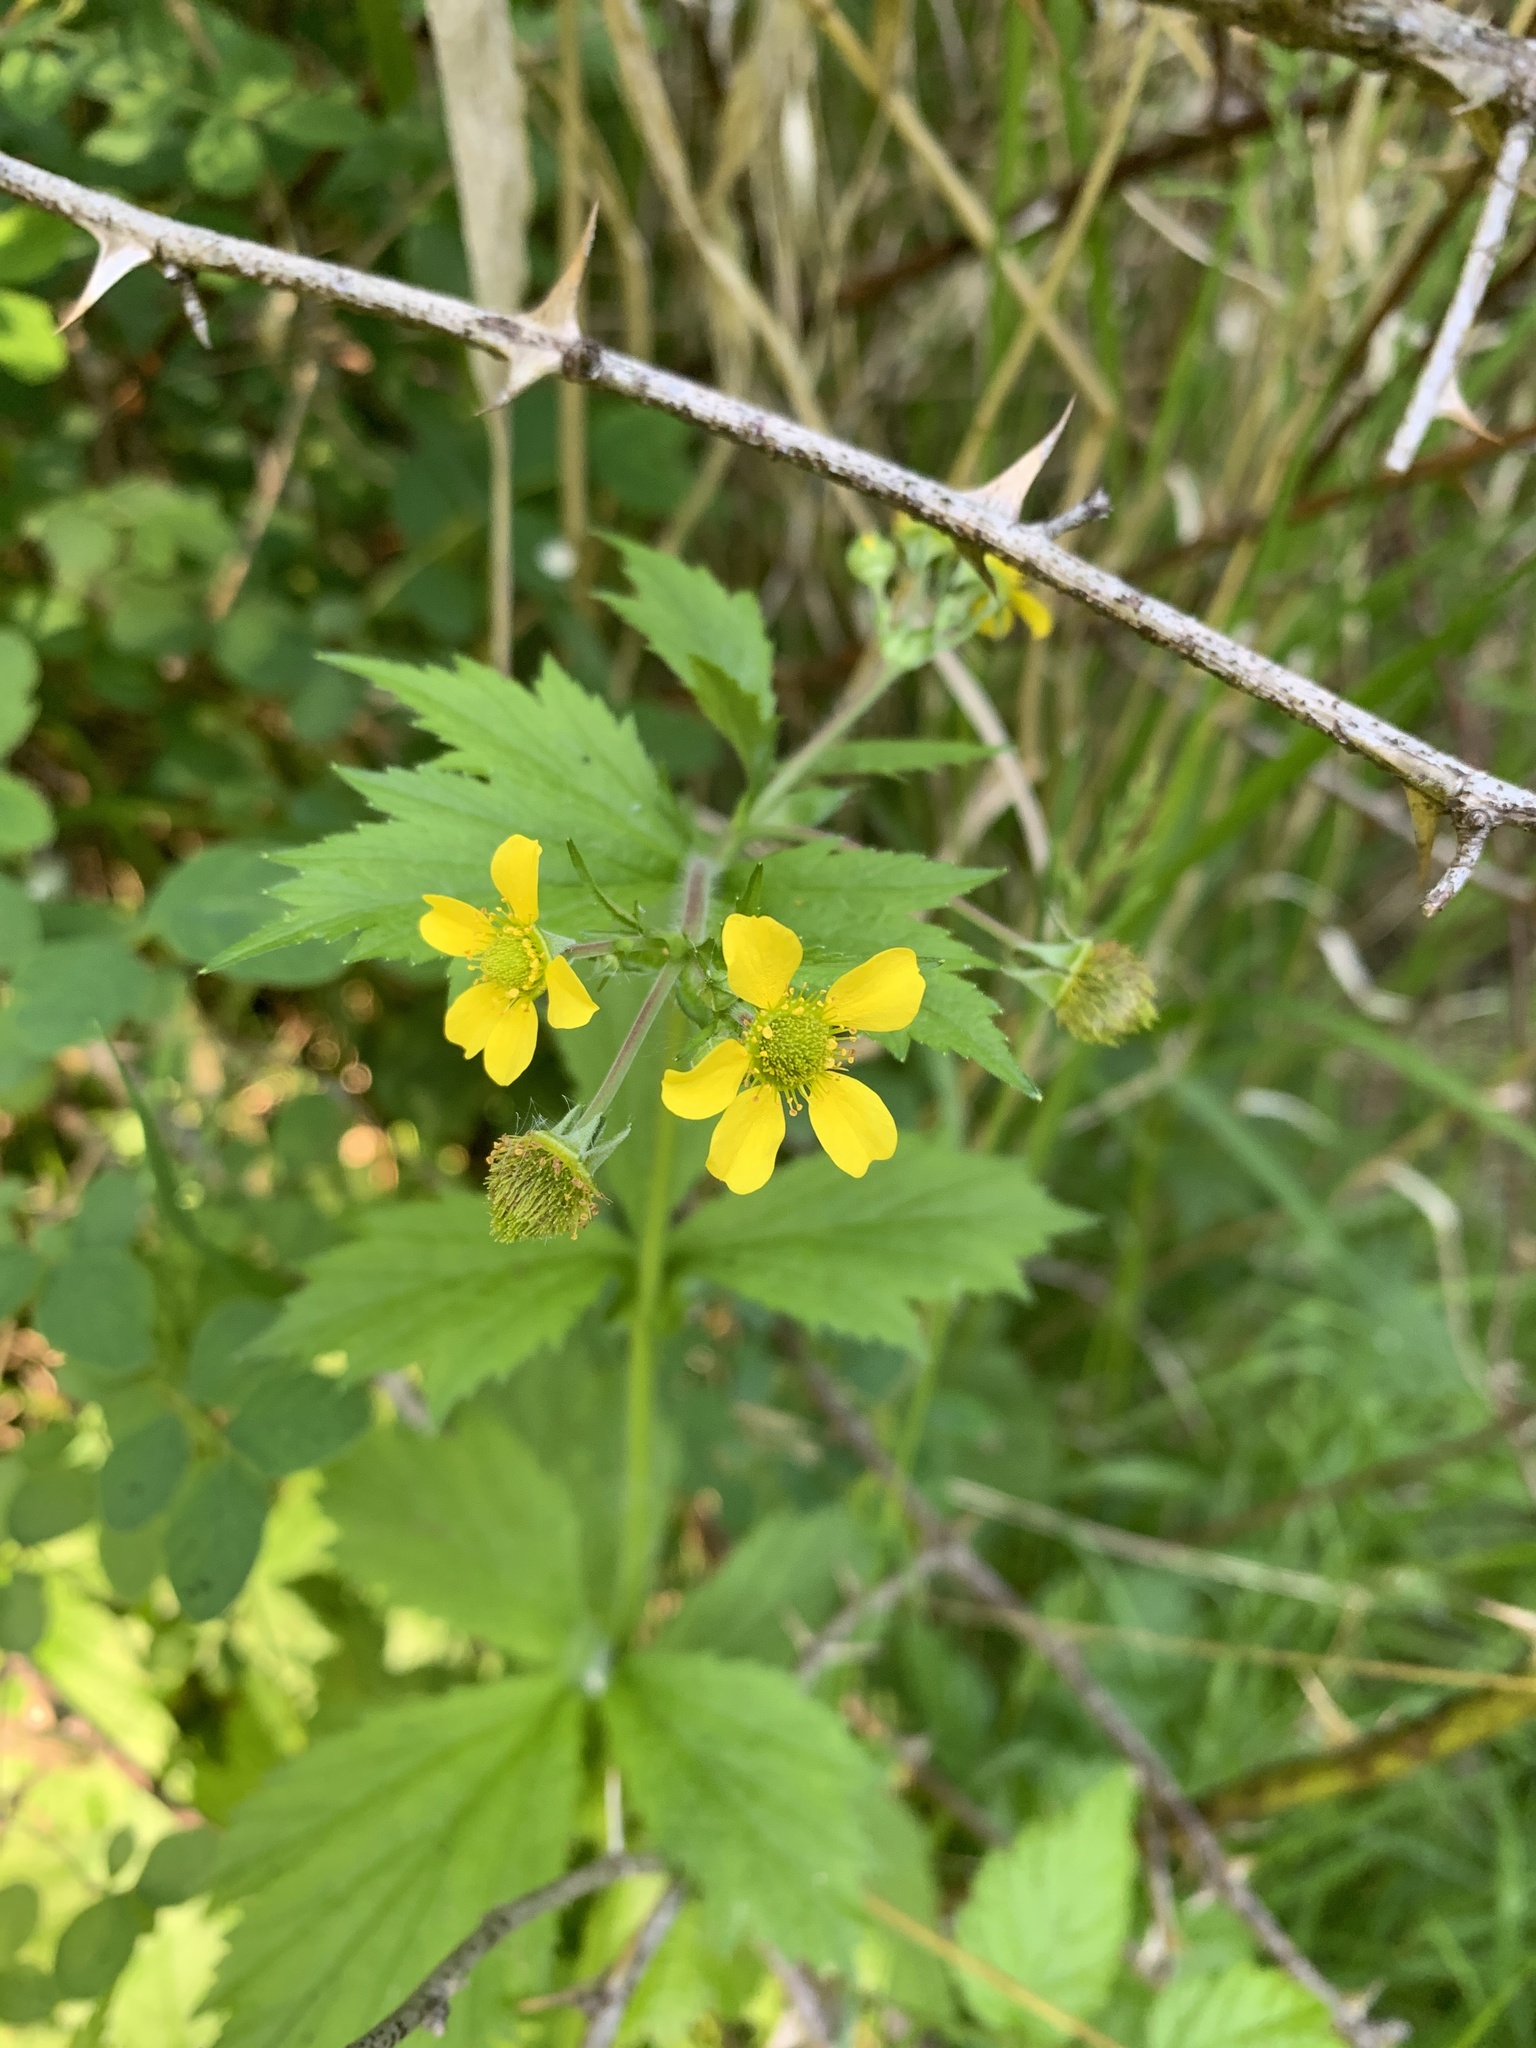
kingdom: Plantae
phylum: Tracheophyta
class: Magnoliopsida
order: Rosales
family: Rosaceae
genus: Geum
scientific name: Geum macrophyllum
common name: Large-leaved avens
